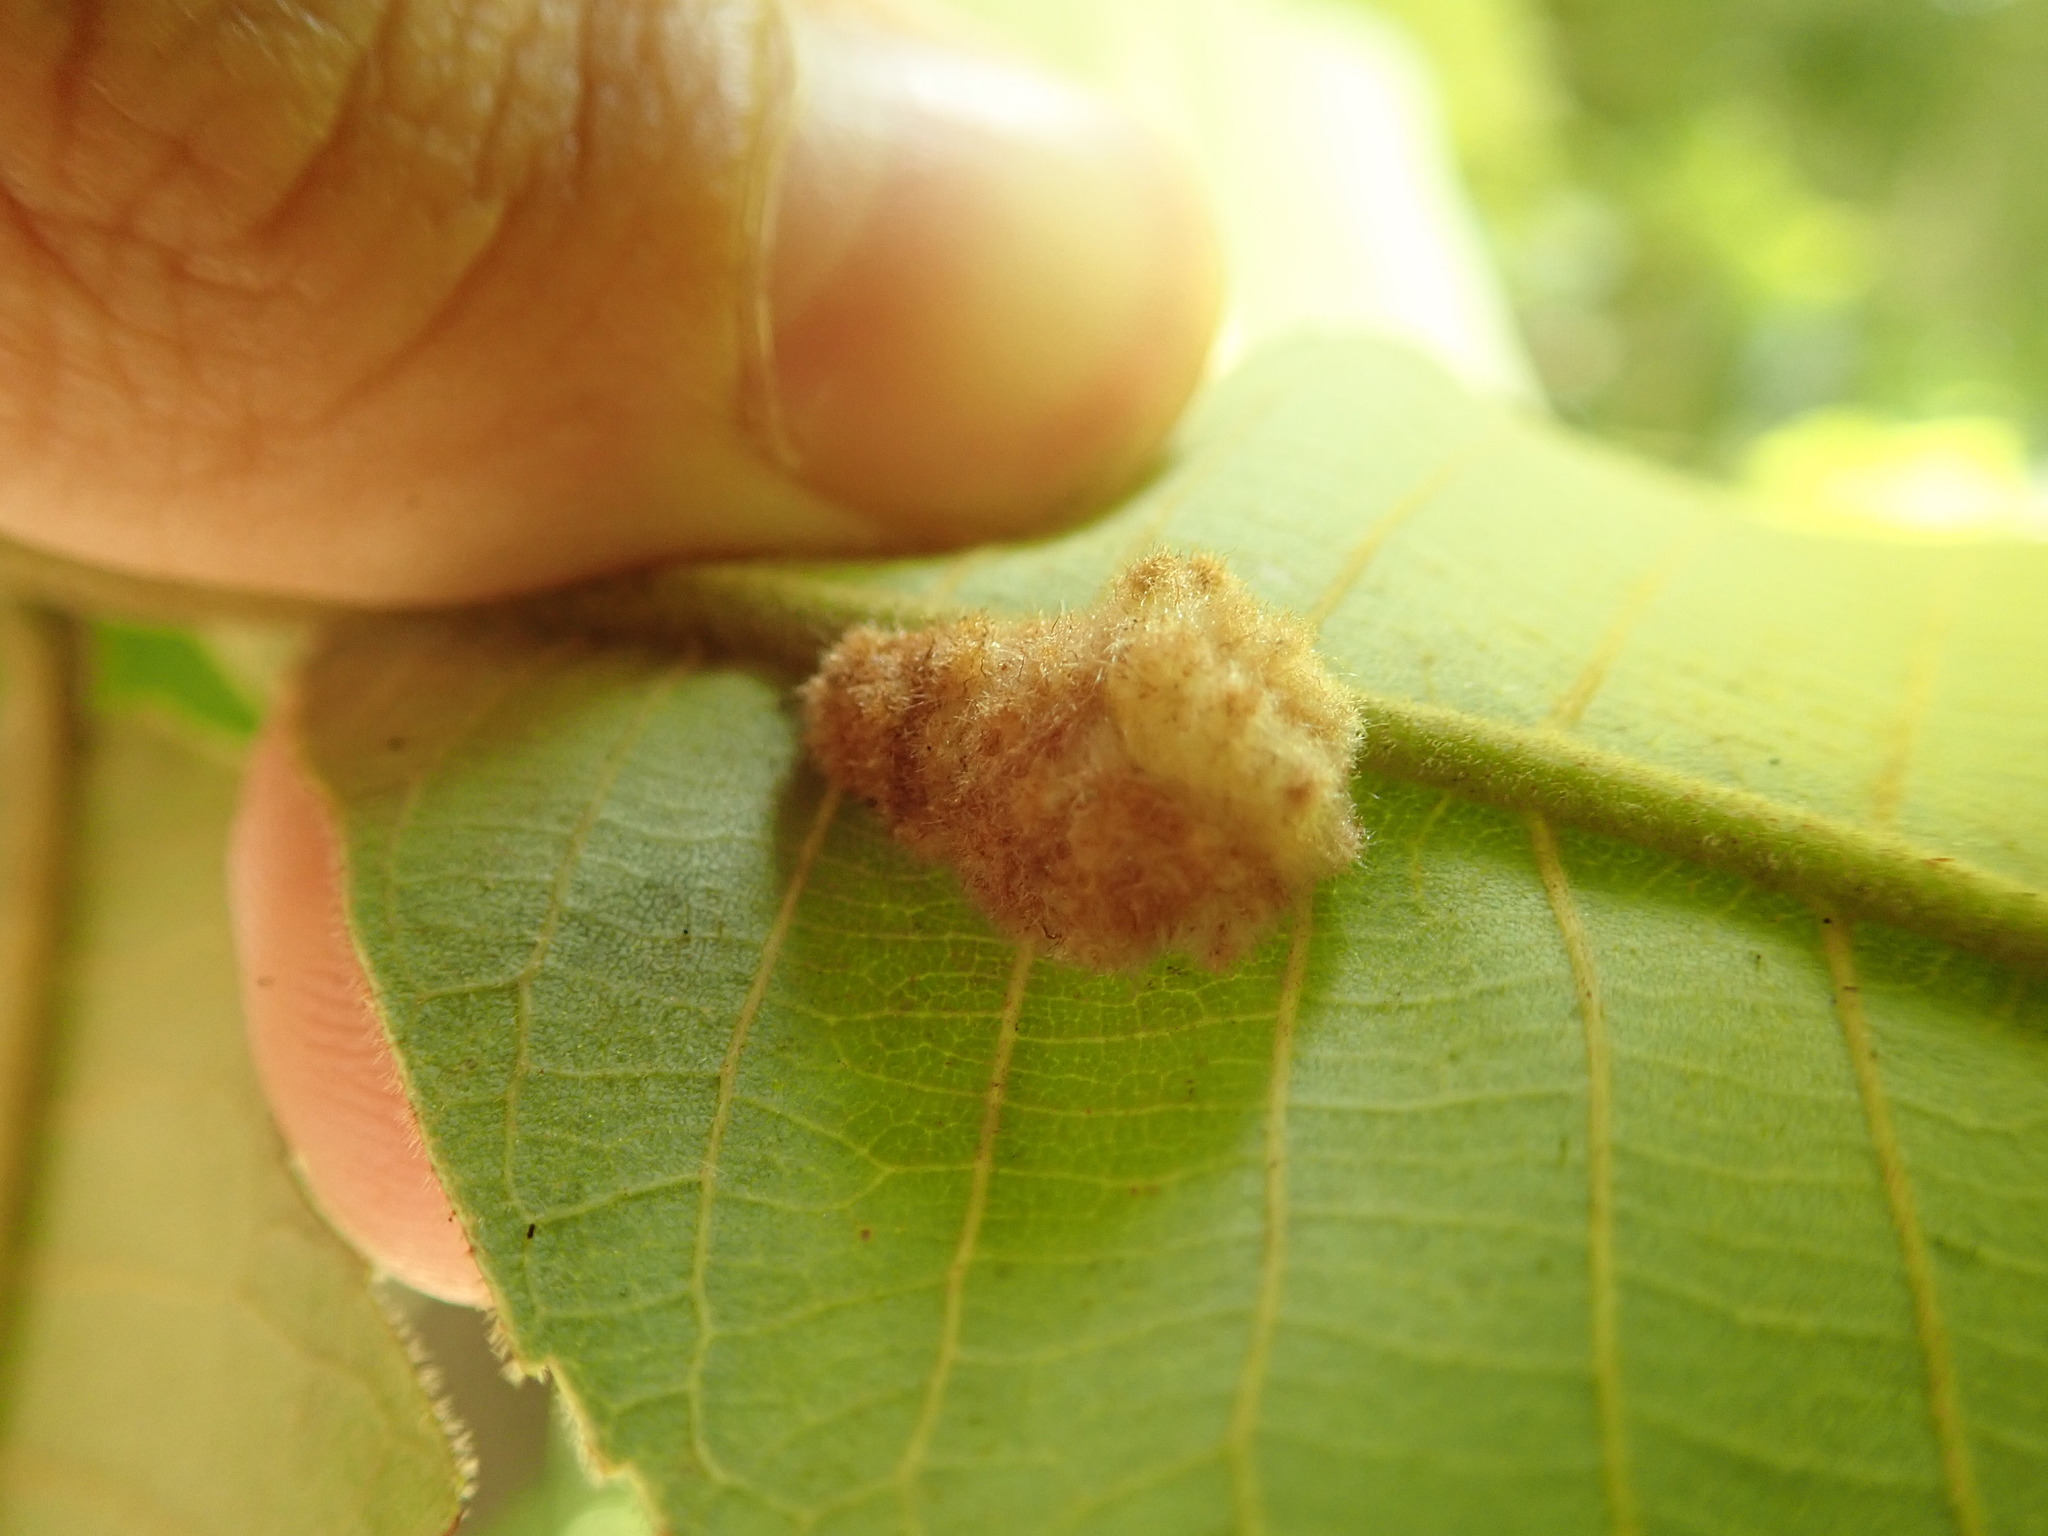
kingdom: Animalia
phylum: Arthropoda
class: Insecta
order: Diptera
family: Cecidomyiidae
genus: Caryomyia
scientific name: Caryomyia aggregata
